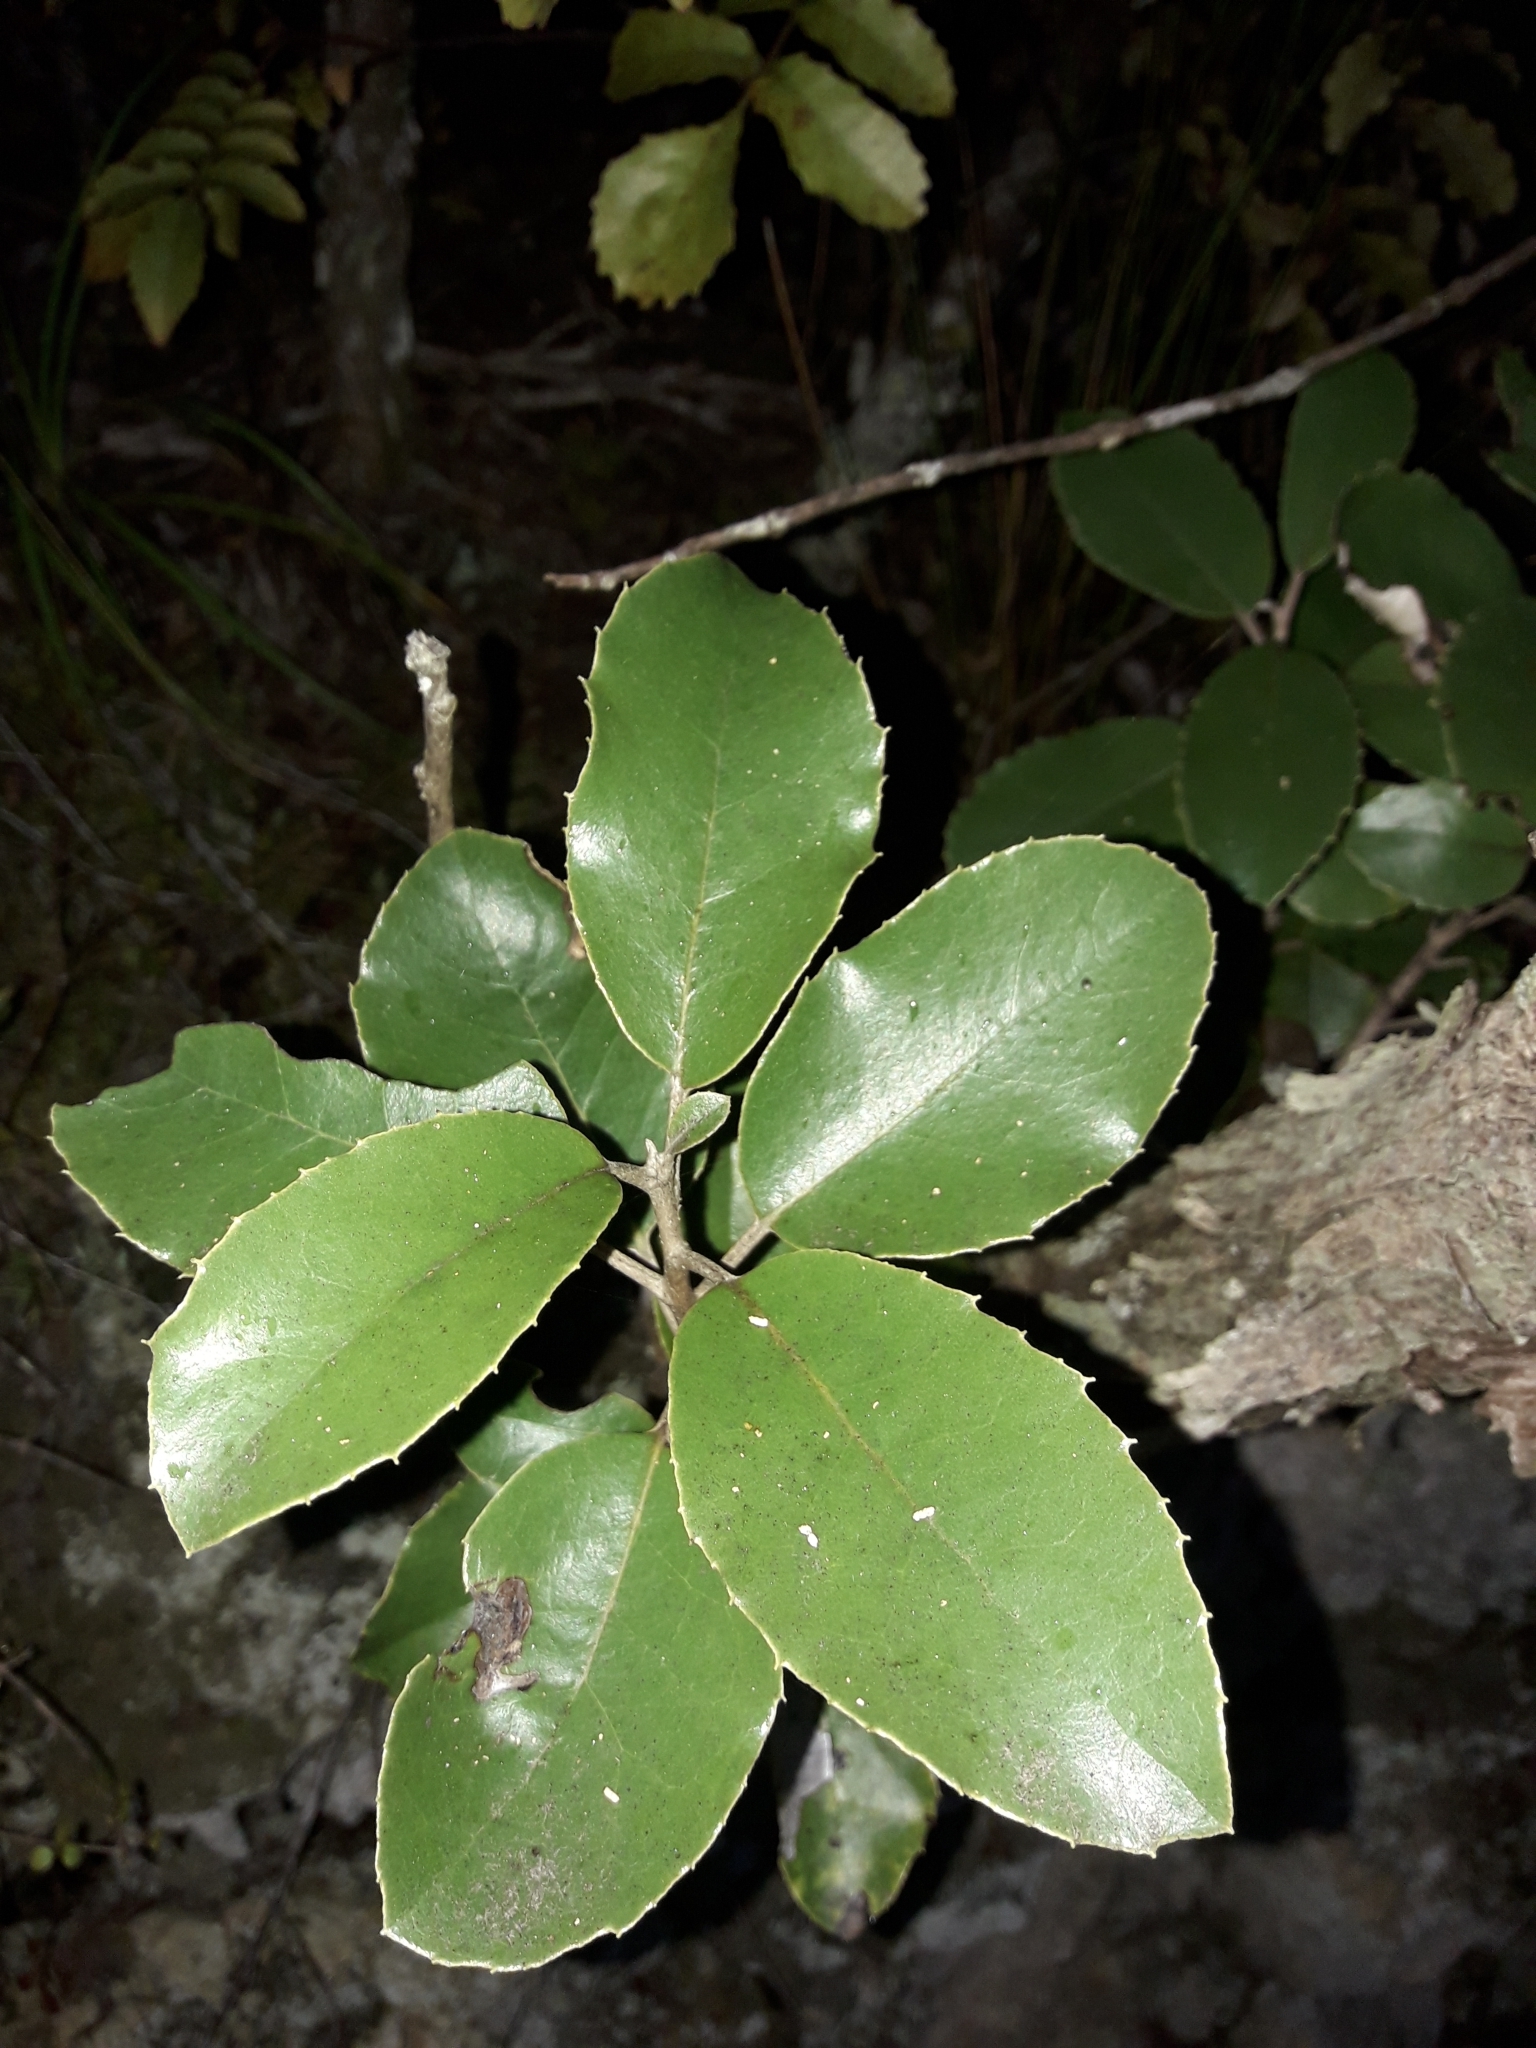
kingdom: Plantae
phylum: Tracheophyta
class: Magnoliopsida
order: Asterales
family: Asteraceae
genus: Olearia
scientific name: Olearia furfuracea
